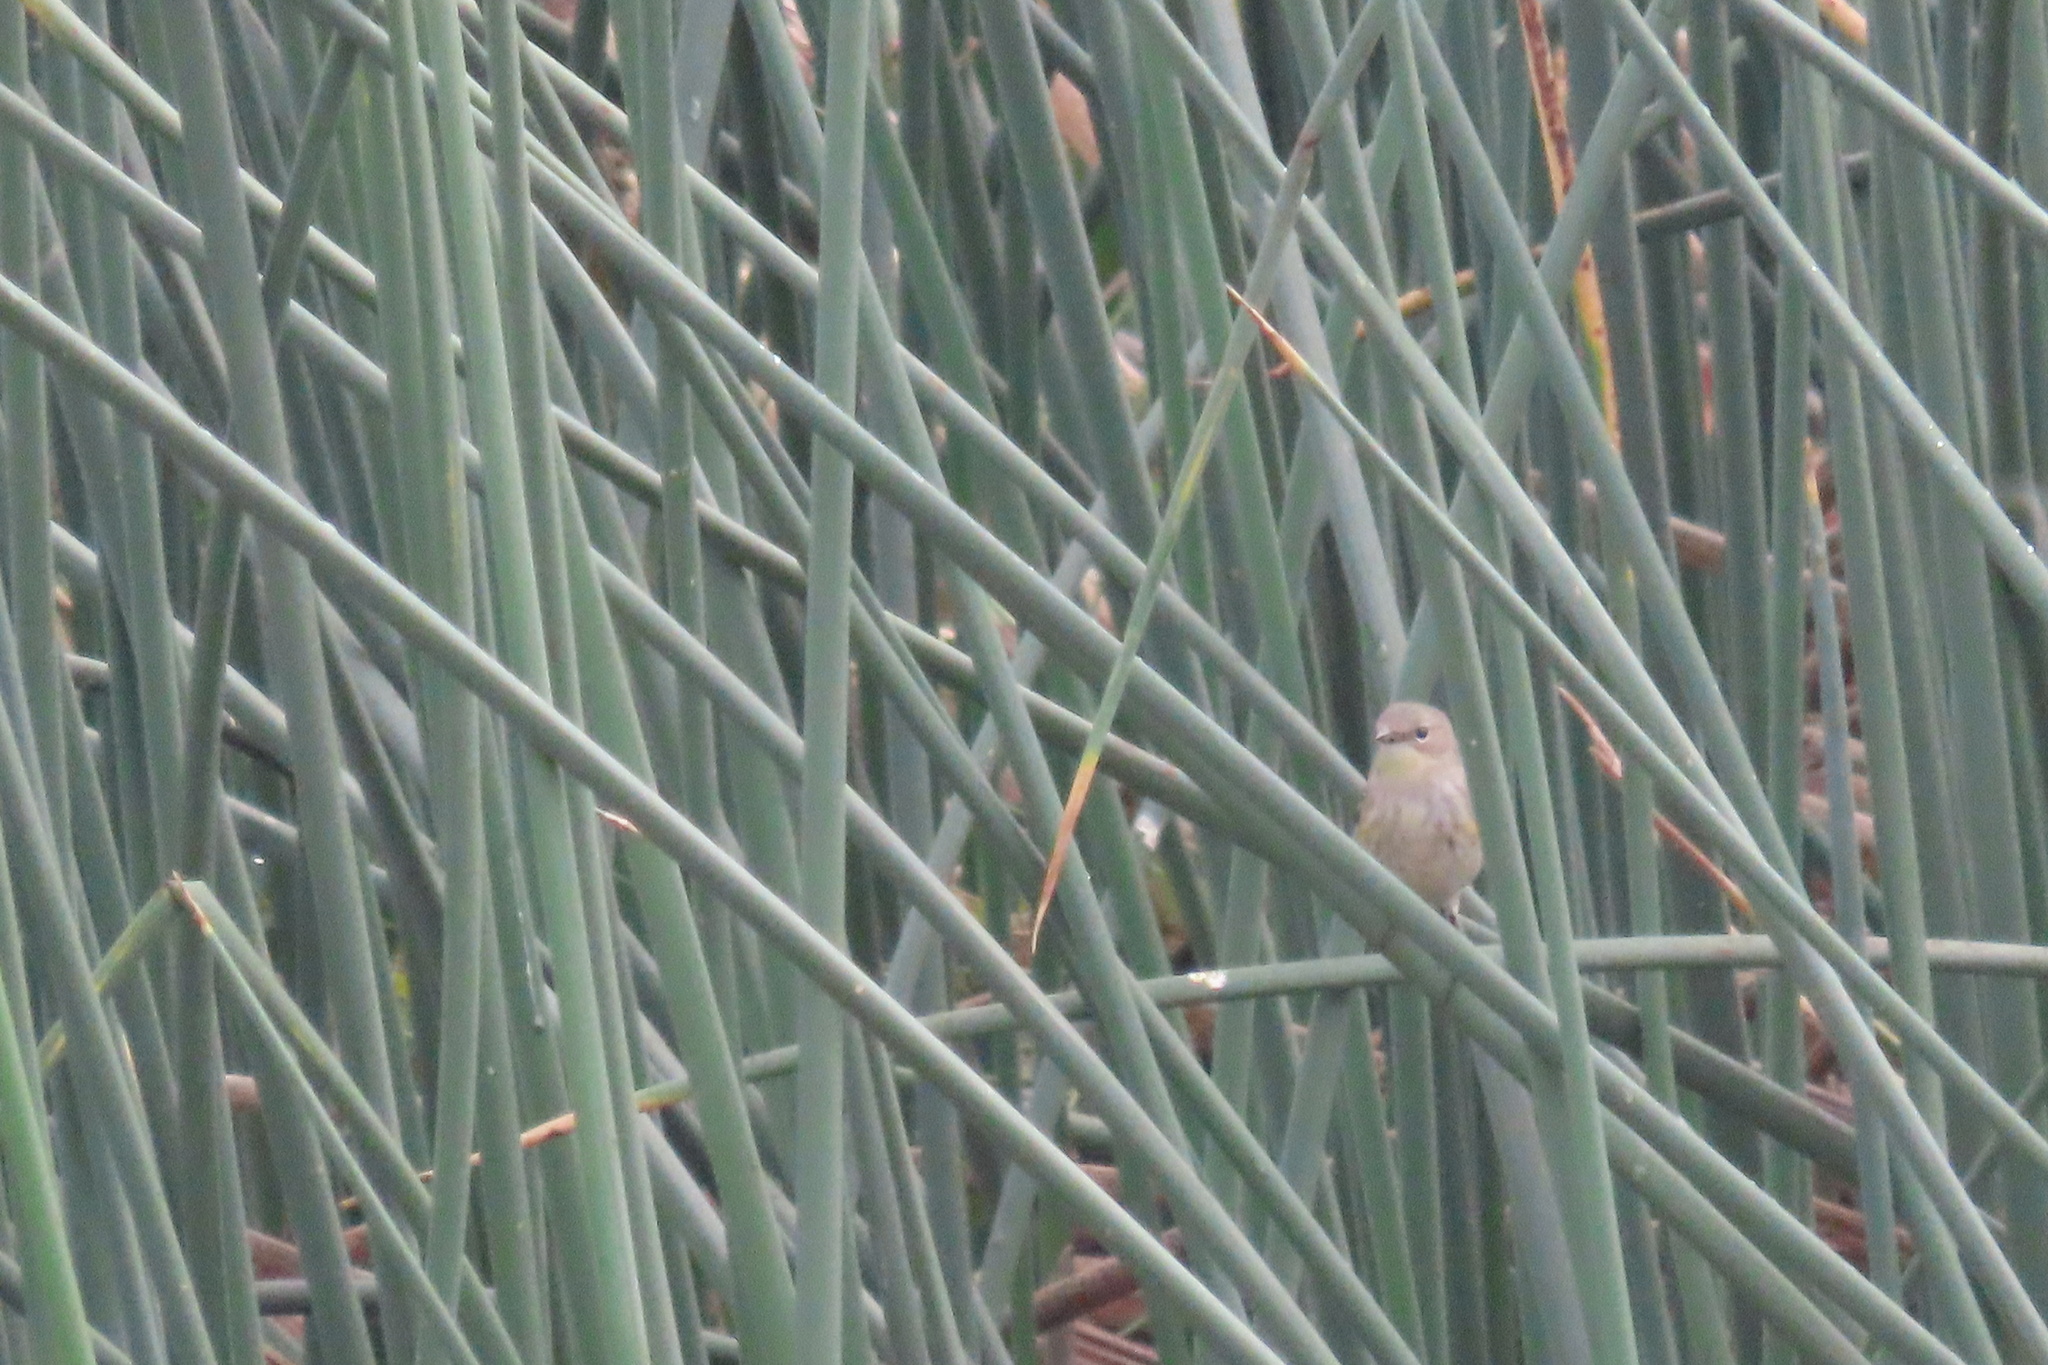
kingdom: Animalia
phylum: Chordata
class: Aves
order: Passeriformes
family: Parulidae
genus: Setophaga
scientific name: Setophaga coronata
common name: Myrtle warbler
